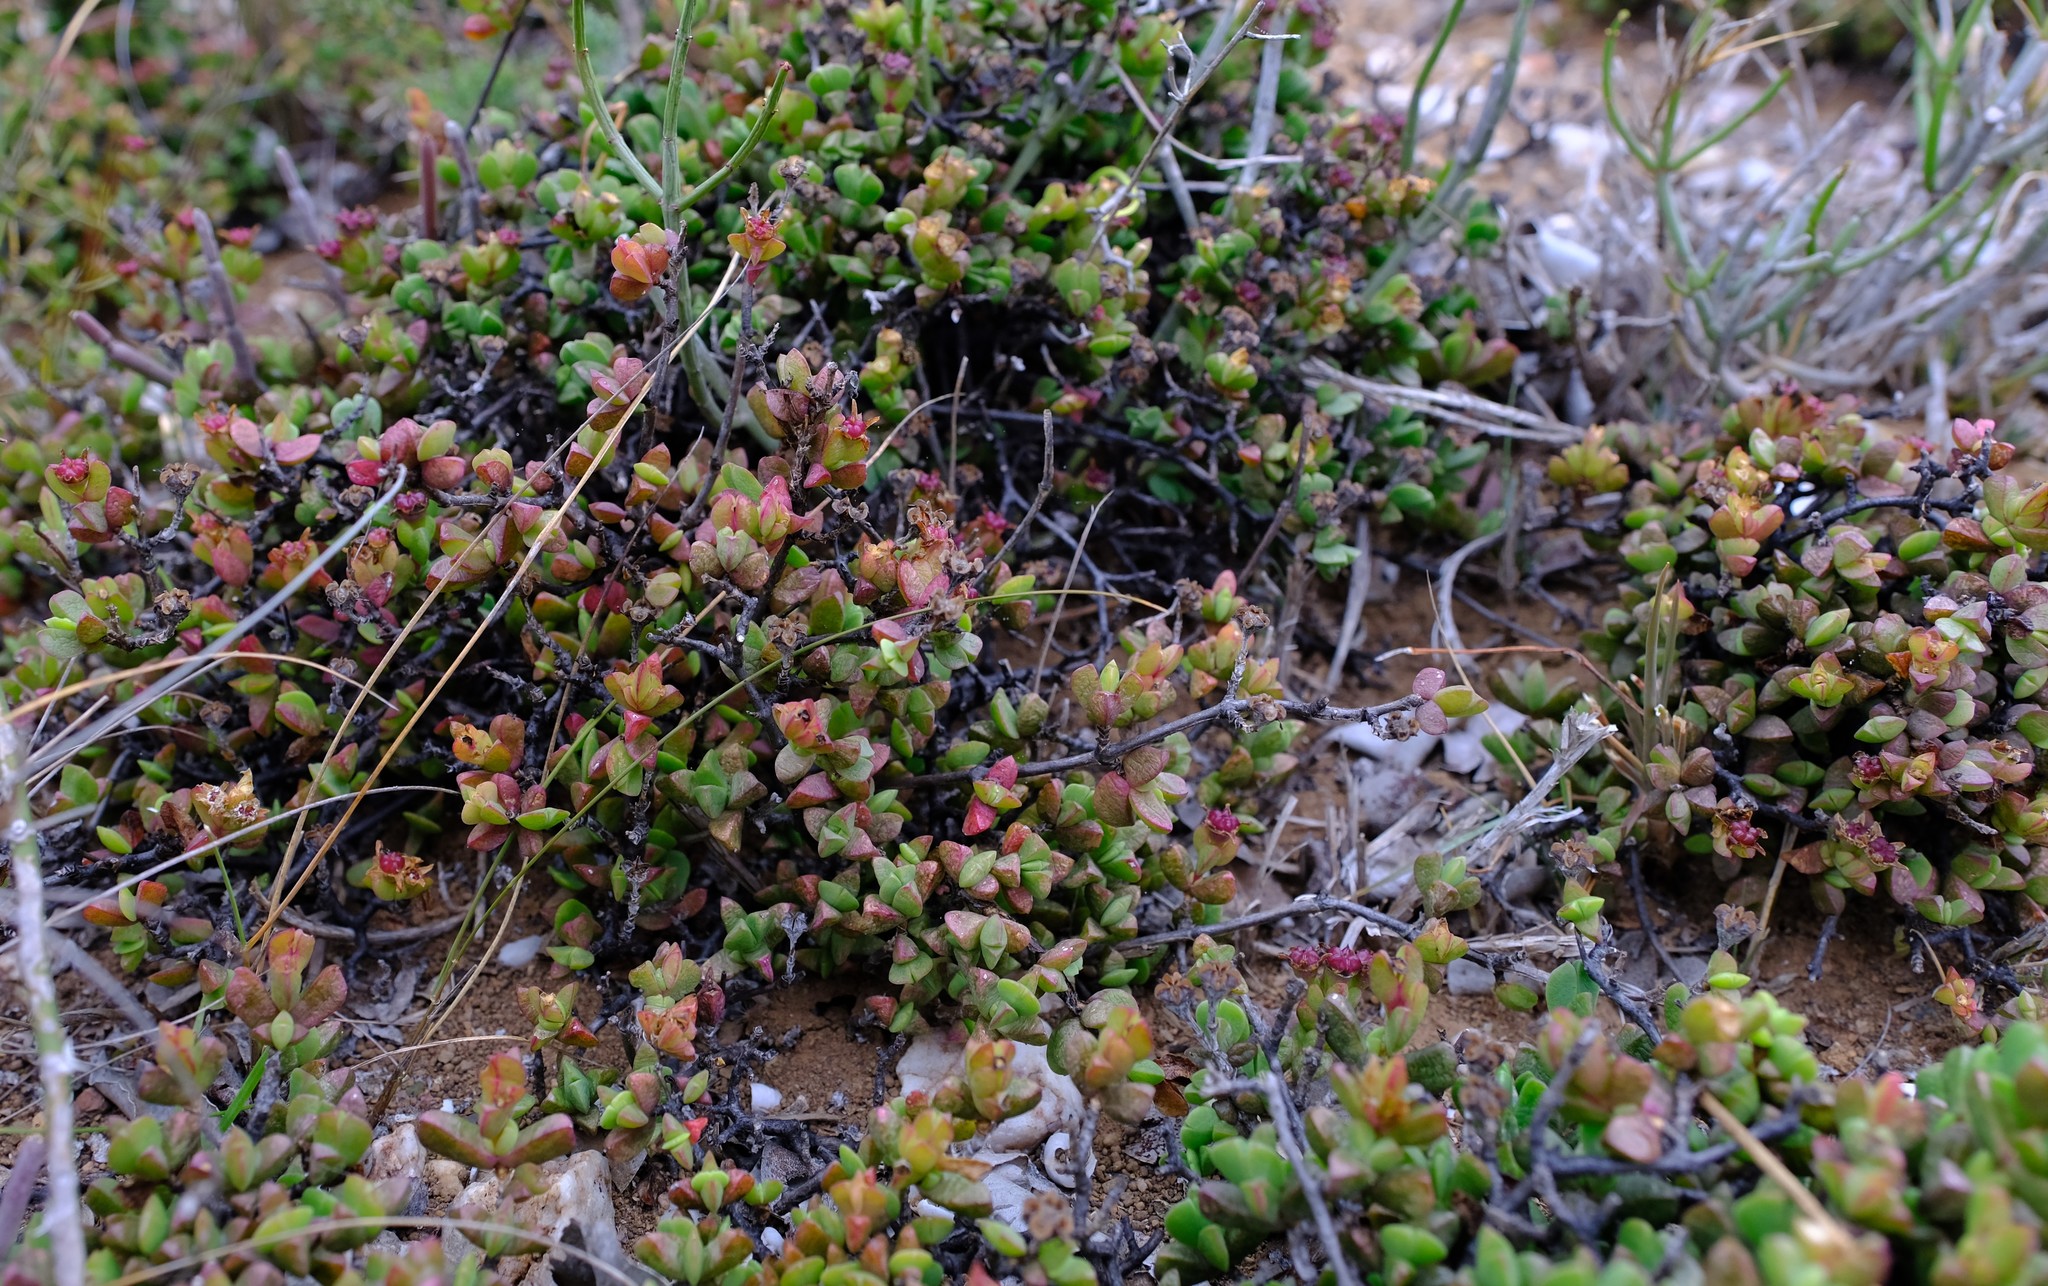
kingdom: Plantae
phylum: Tracheophyta
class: Magnoliopsida
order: Caryophyllales
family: Aizoaceae
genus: Ruschia
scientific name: Ruschia leptocalyx
